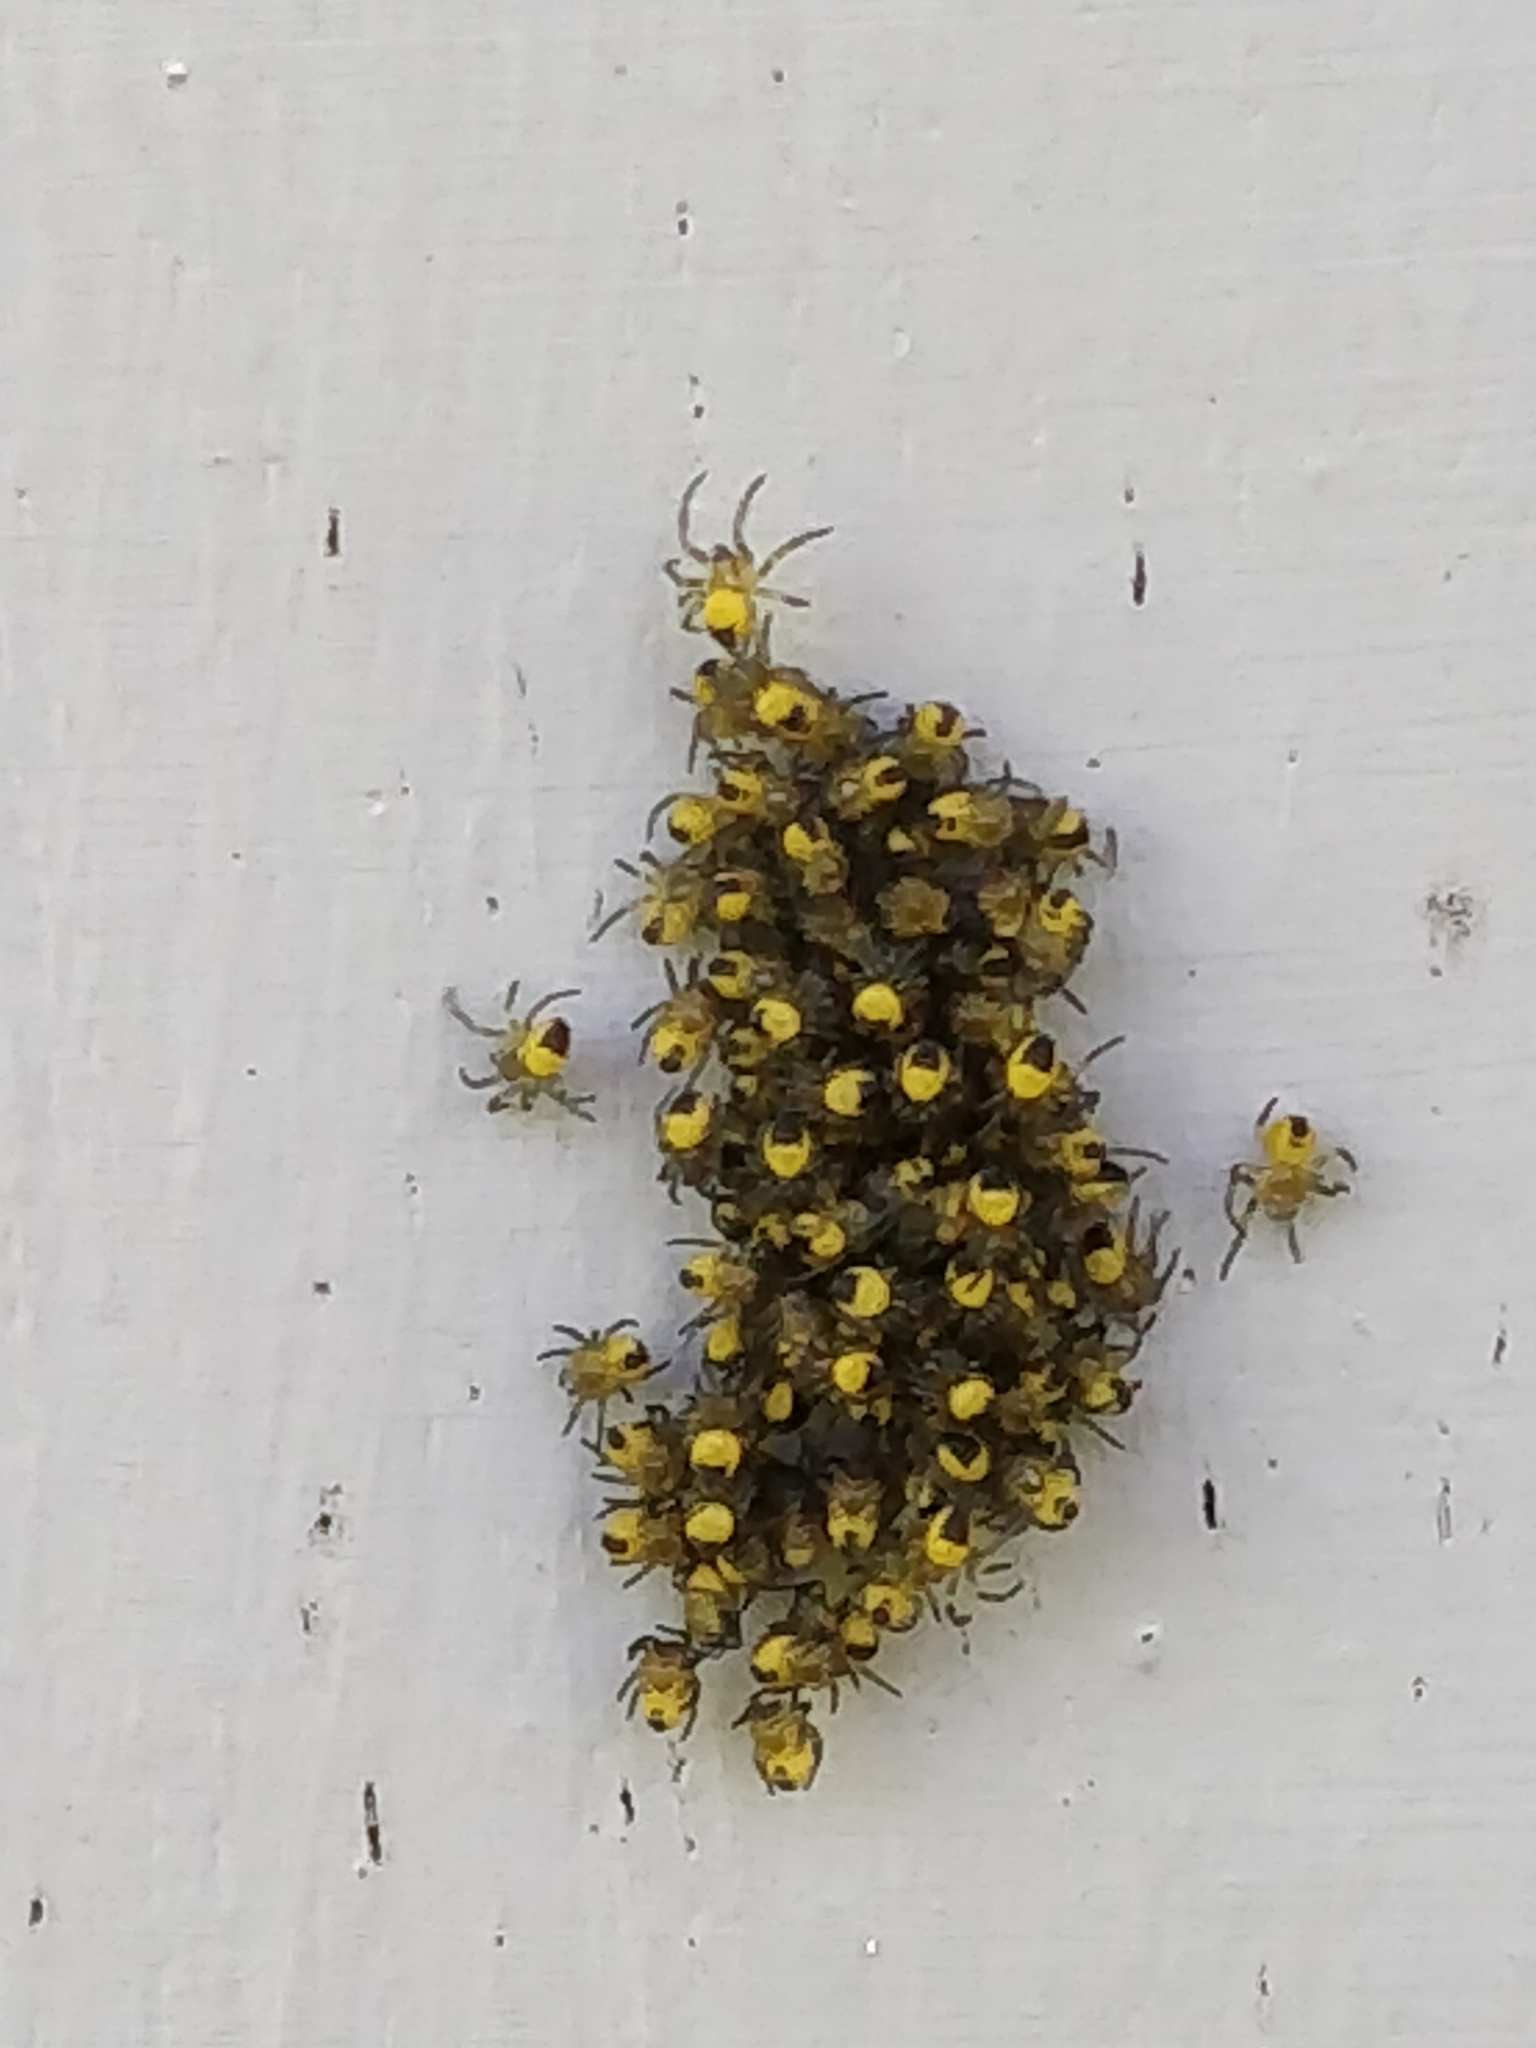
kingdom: Animalia
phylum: Arthropoda
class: Arachnida
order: Araneae
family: Araneidae
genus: Araneus
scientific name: Araneus diadematus
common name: Cross orbweaver
